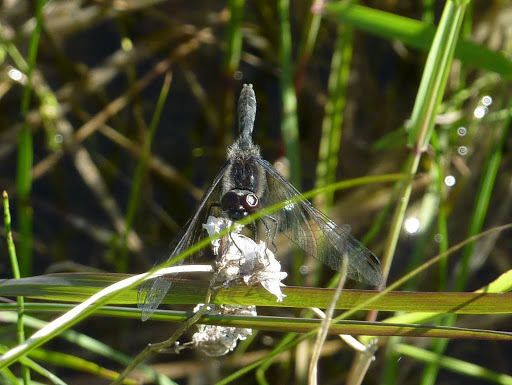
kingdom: Animalia
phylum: Arthropoda
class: Insecta
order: Odonata
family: Libellulidae
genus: Sympetrum
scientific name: Sympetrum danae
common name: Black darter
